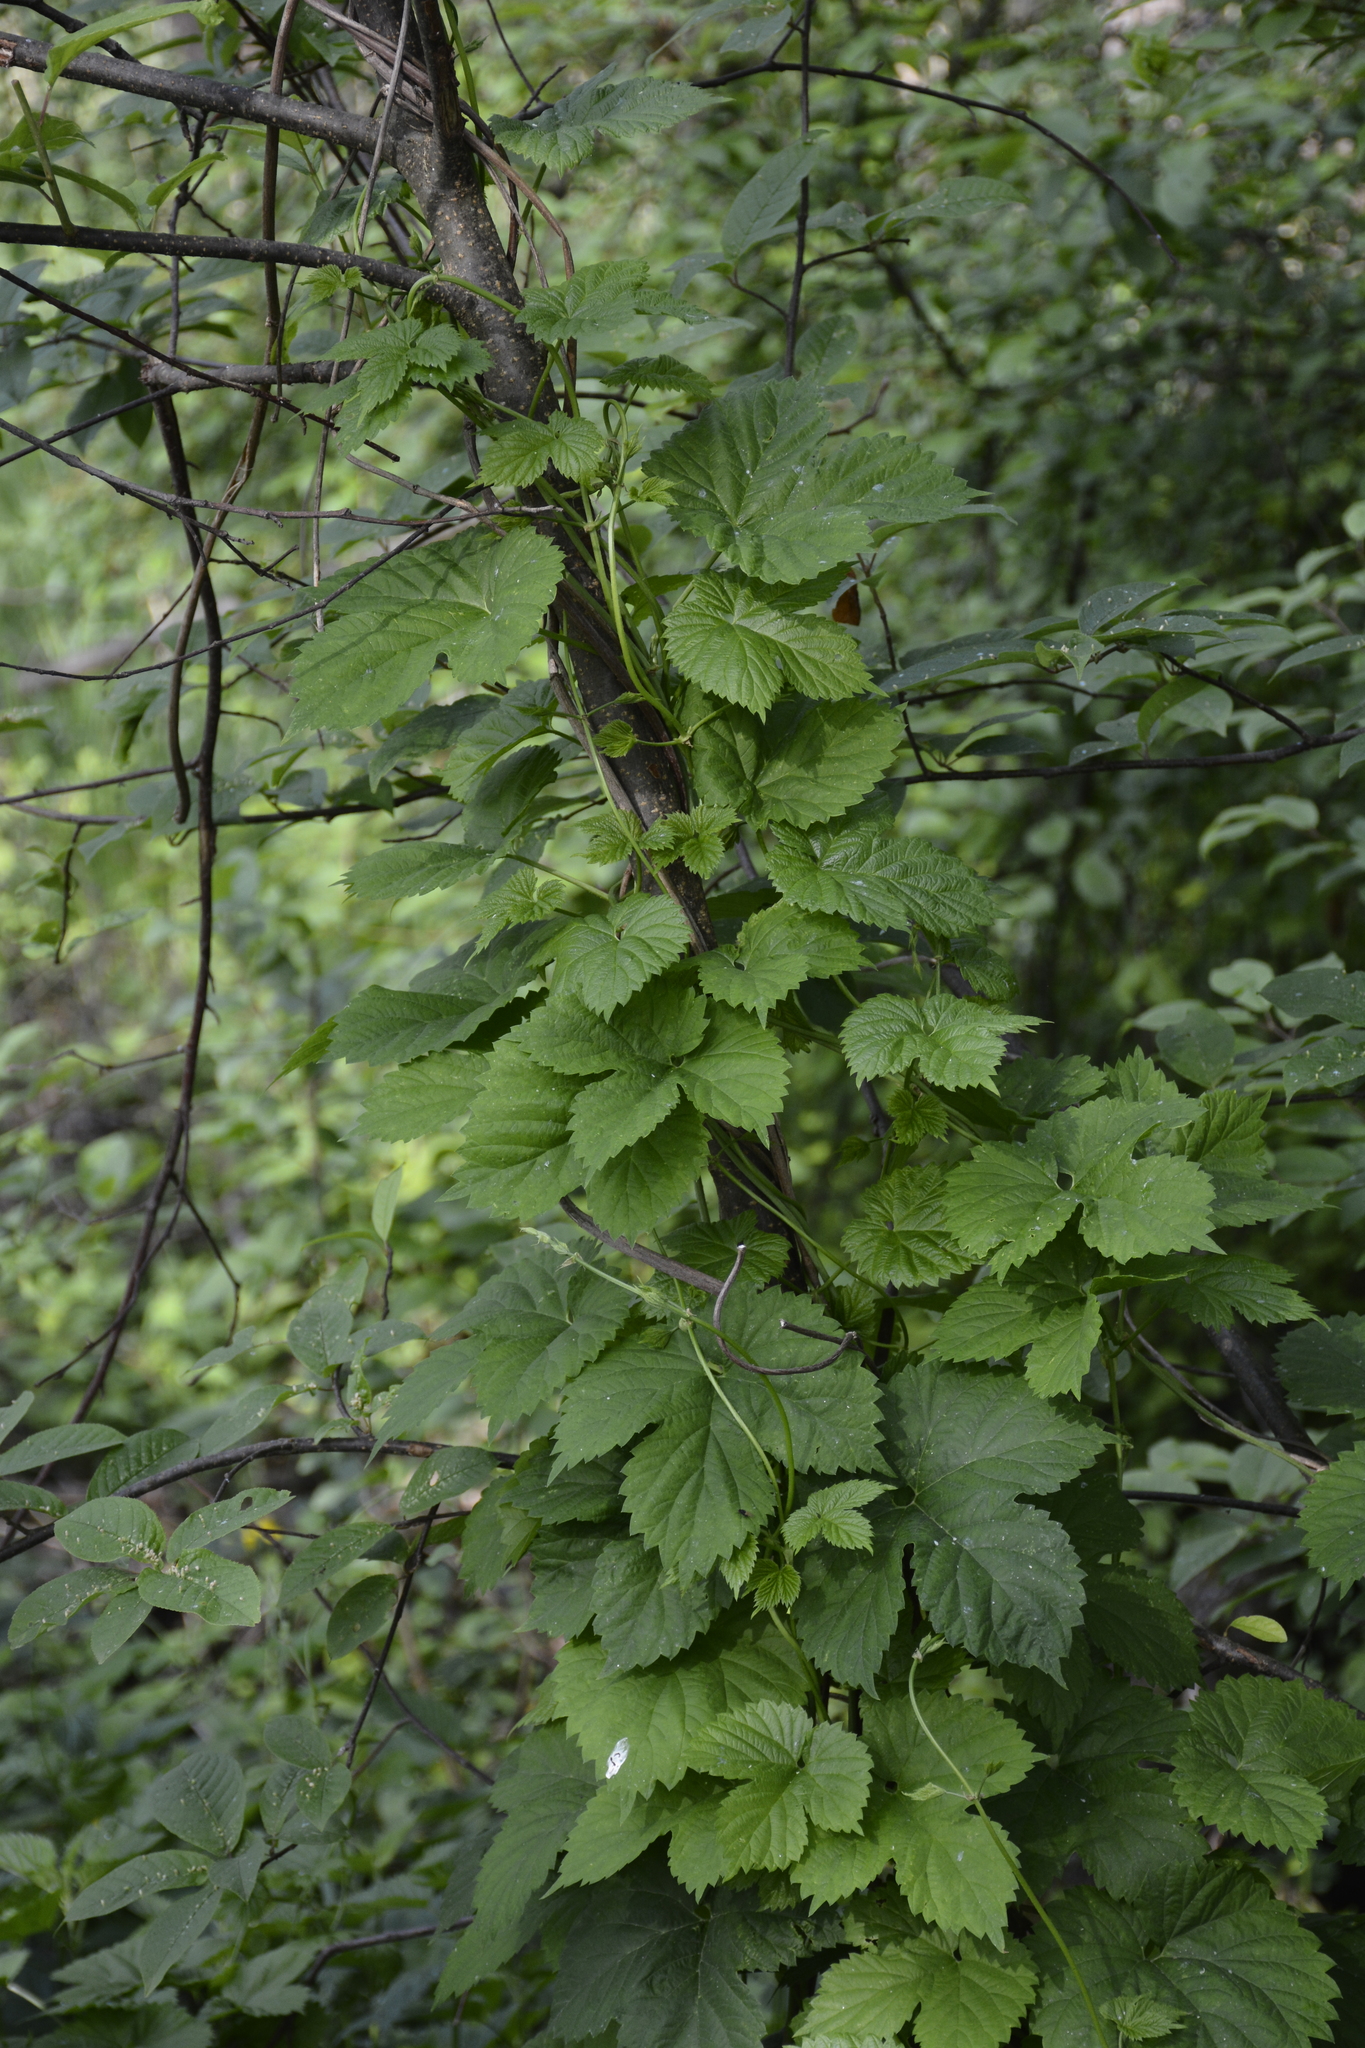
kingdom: Plantae
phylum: Tracheophyta
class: Magnoliopsida
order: Rosales
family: Cannabaceae
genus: Humulus
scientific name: Humulus lupulus
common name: Hop
